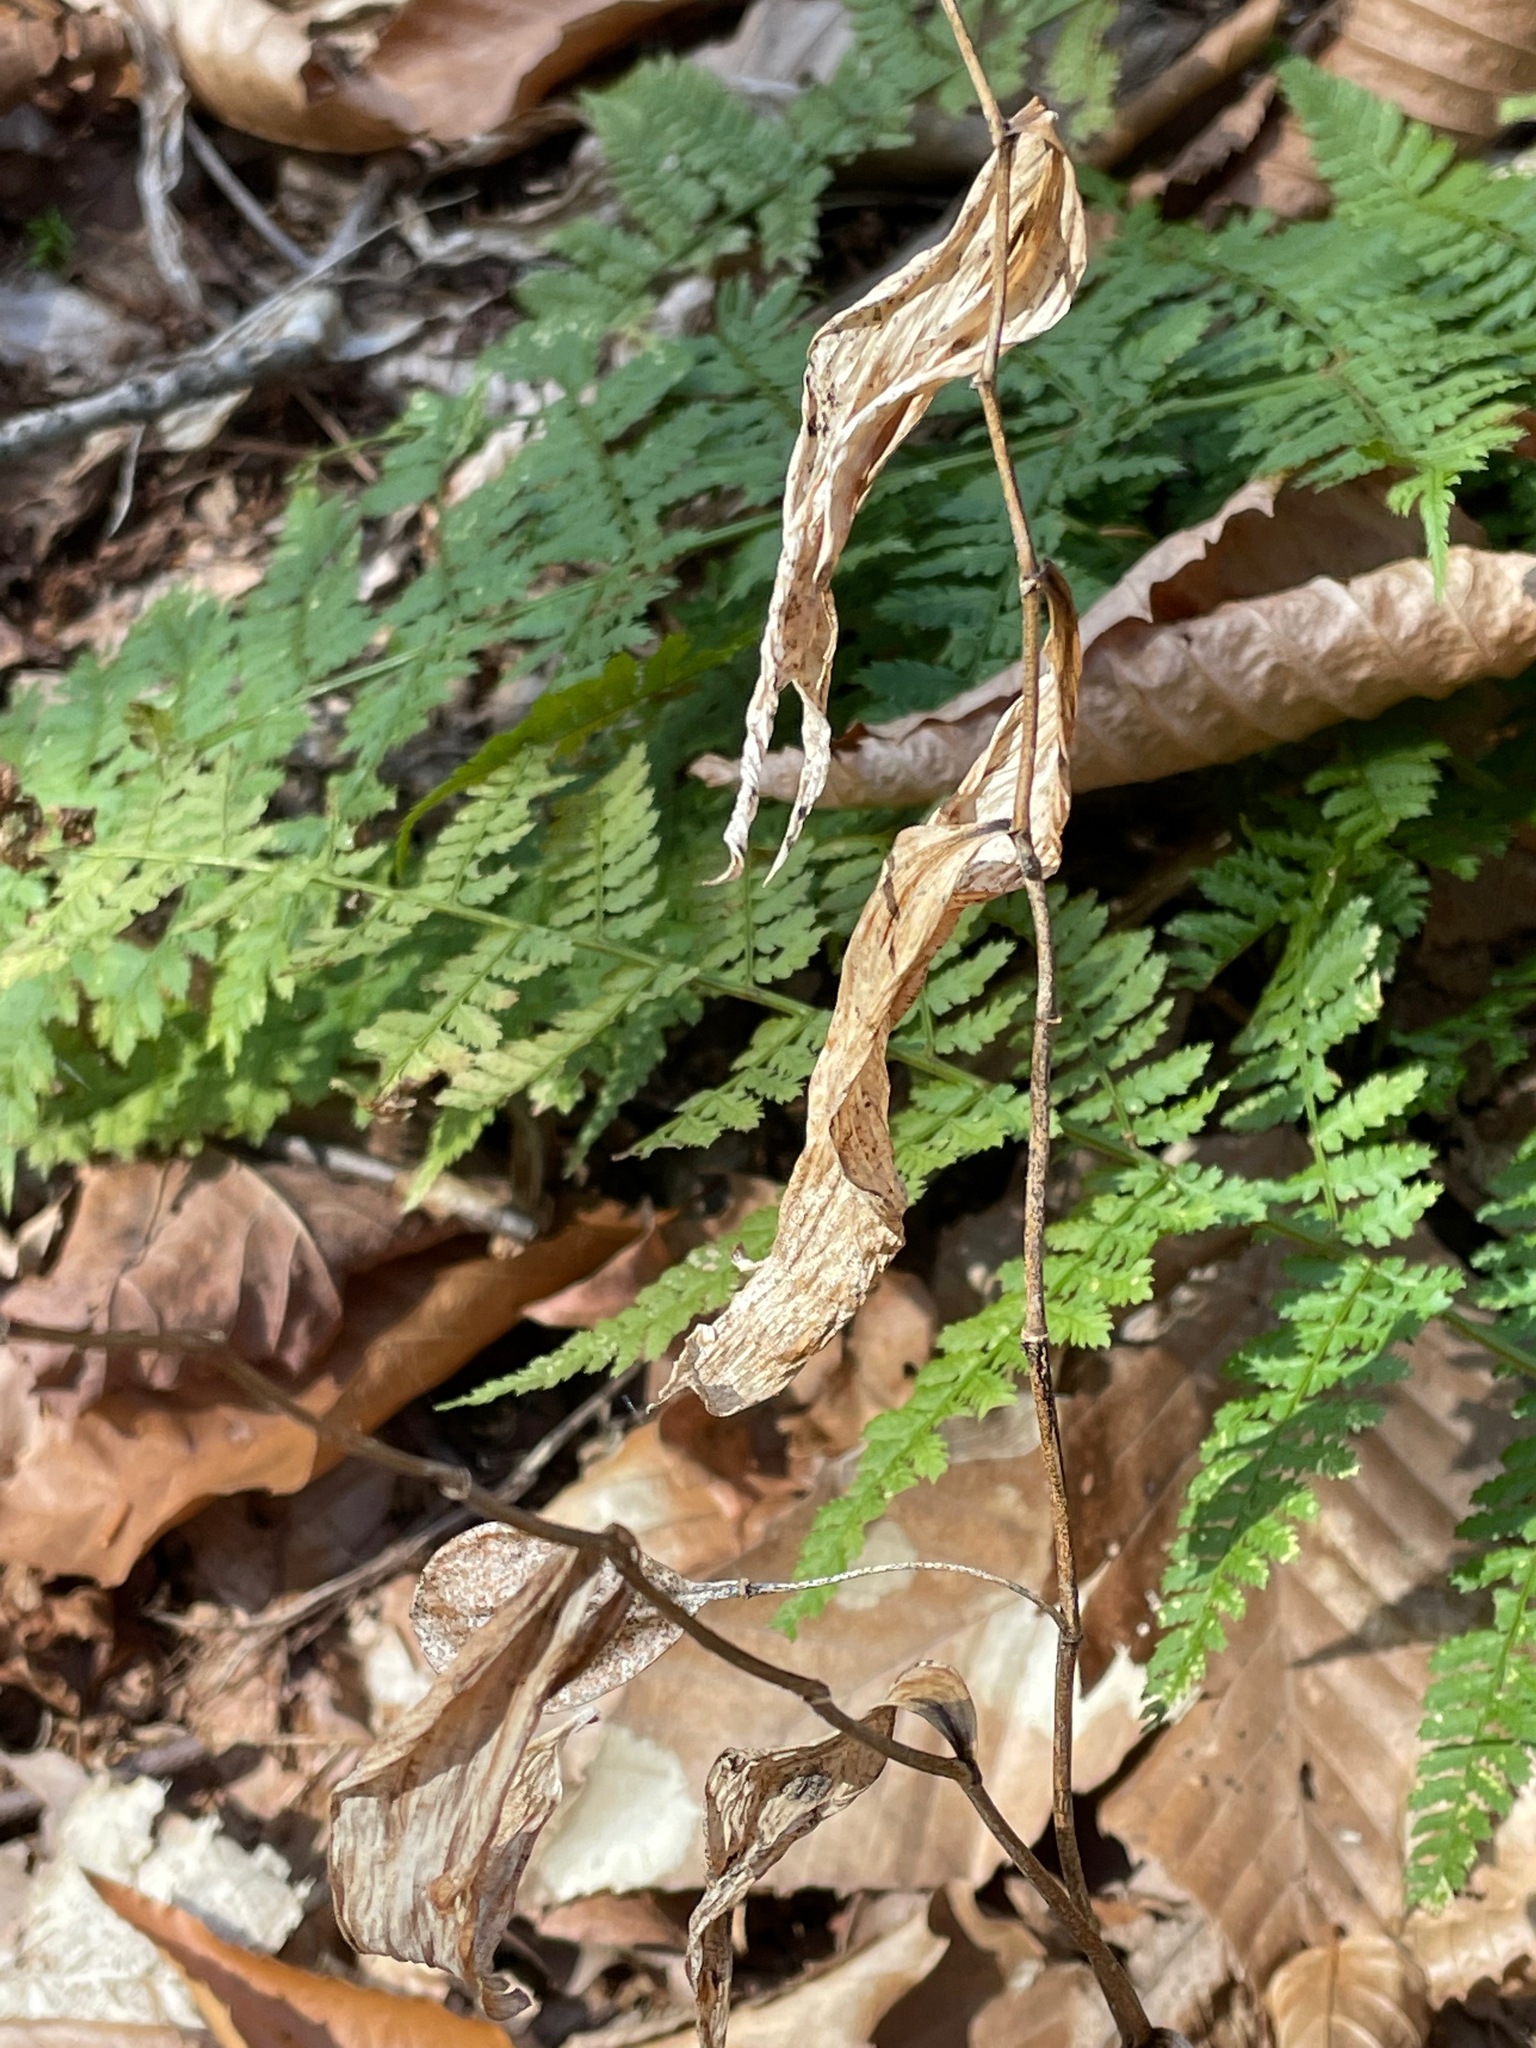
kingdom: Plantae
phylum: Tracheophyta
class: Liliopsida
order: Liliales
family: Colchicaceae
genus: Uvularia
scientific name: Uvularia sessilifolia
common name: Straw-lily
